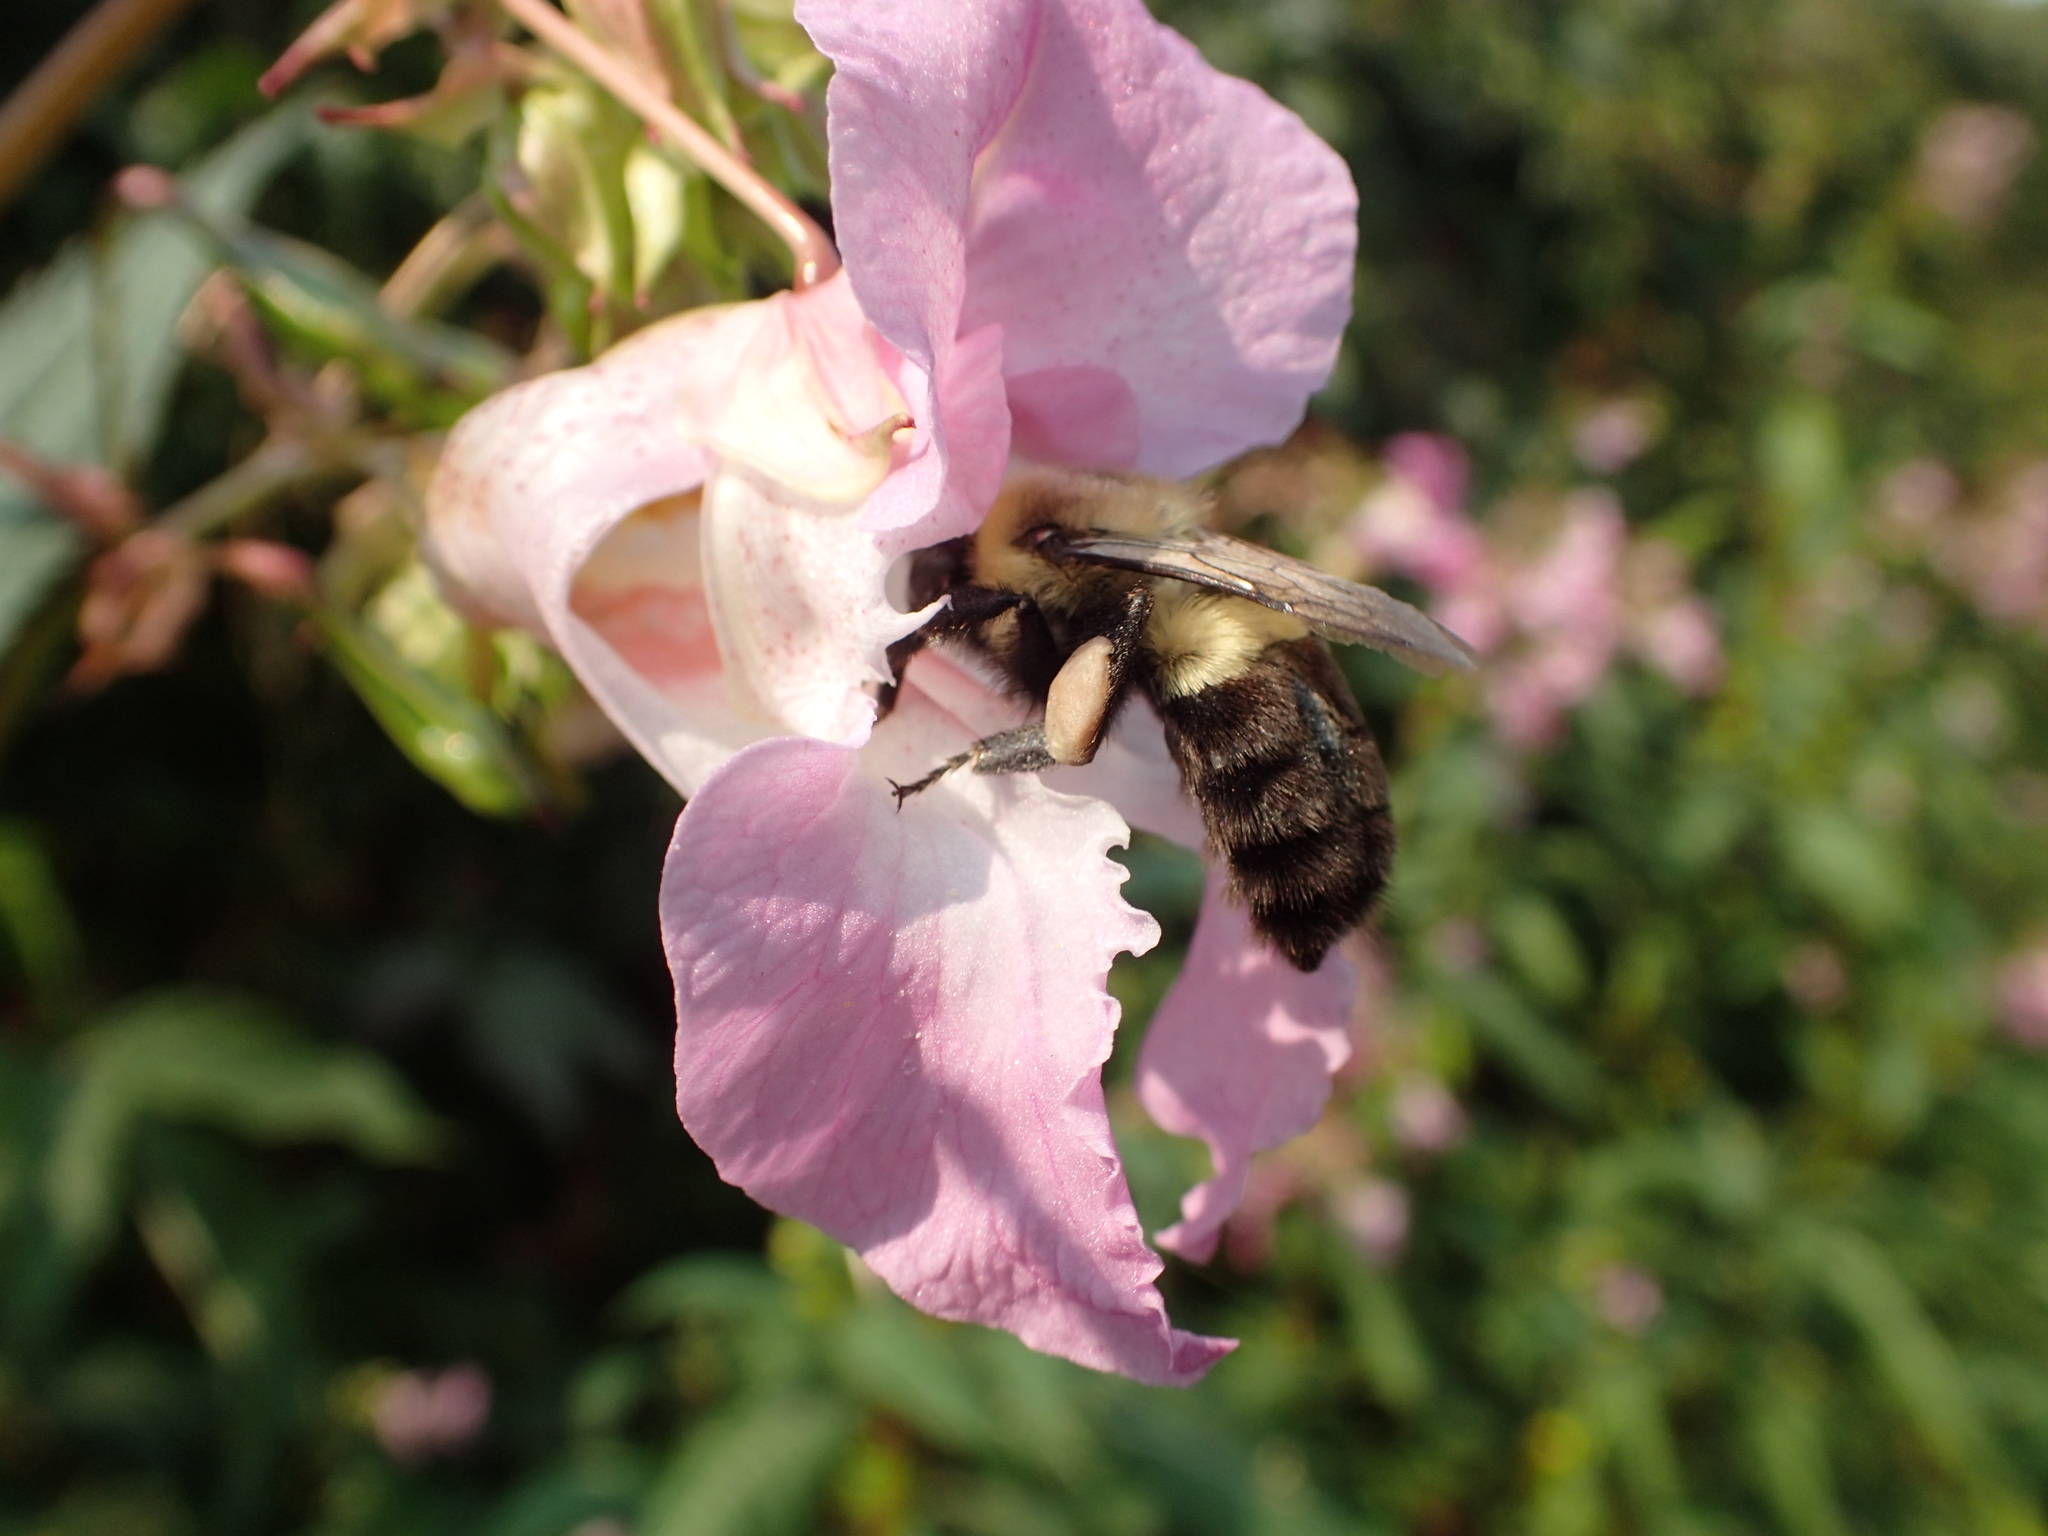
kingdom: Animalia
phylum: Arthropoda
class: Insecta
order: Hymenoptera
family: Apidae
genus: Bombus
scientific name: Bombus impatiens
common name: Common eastern bumble bee
